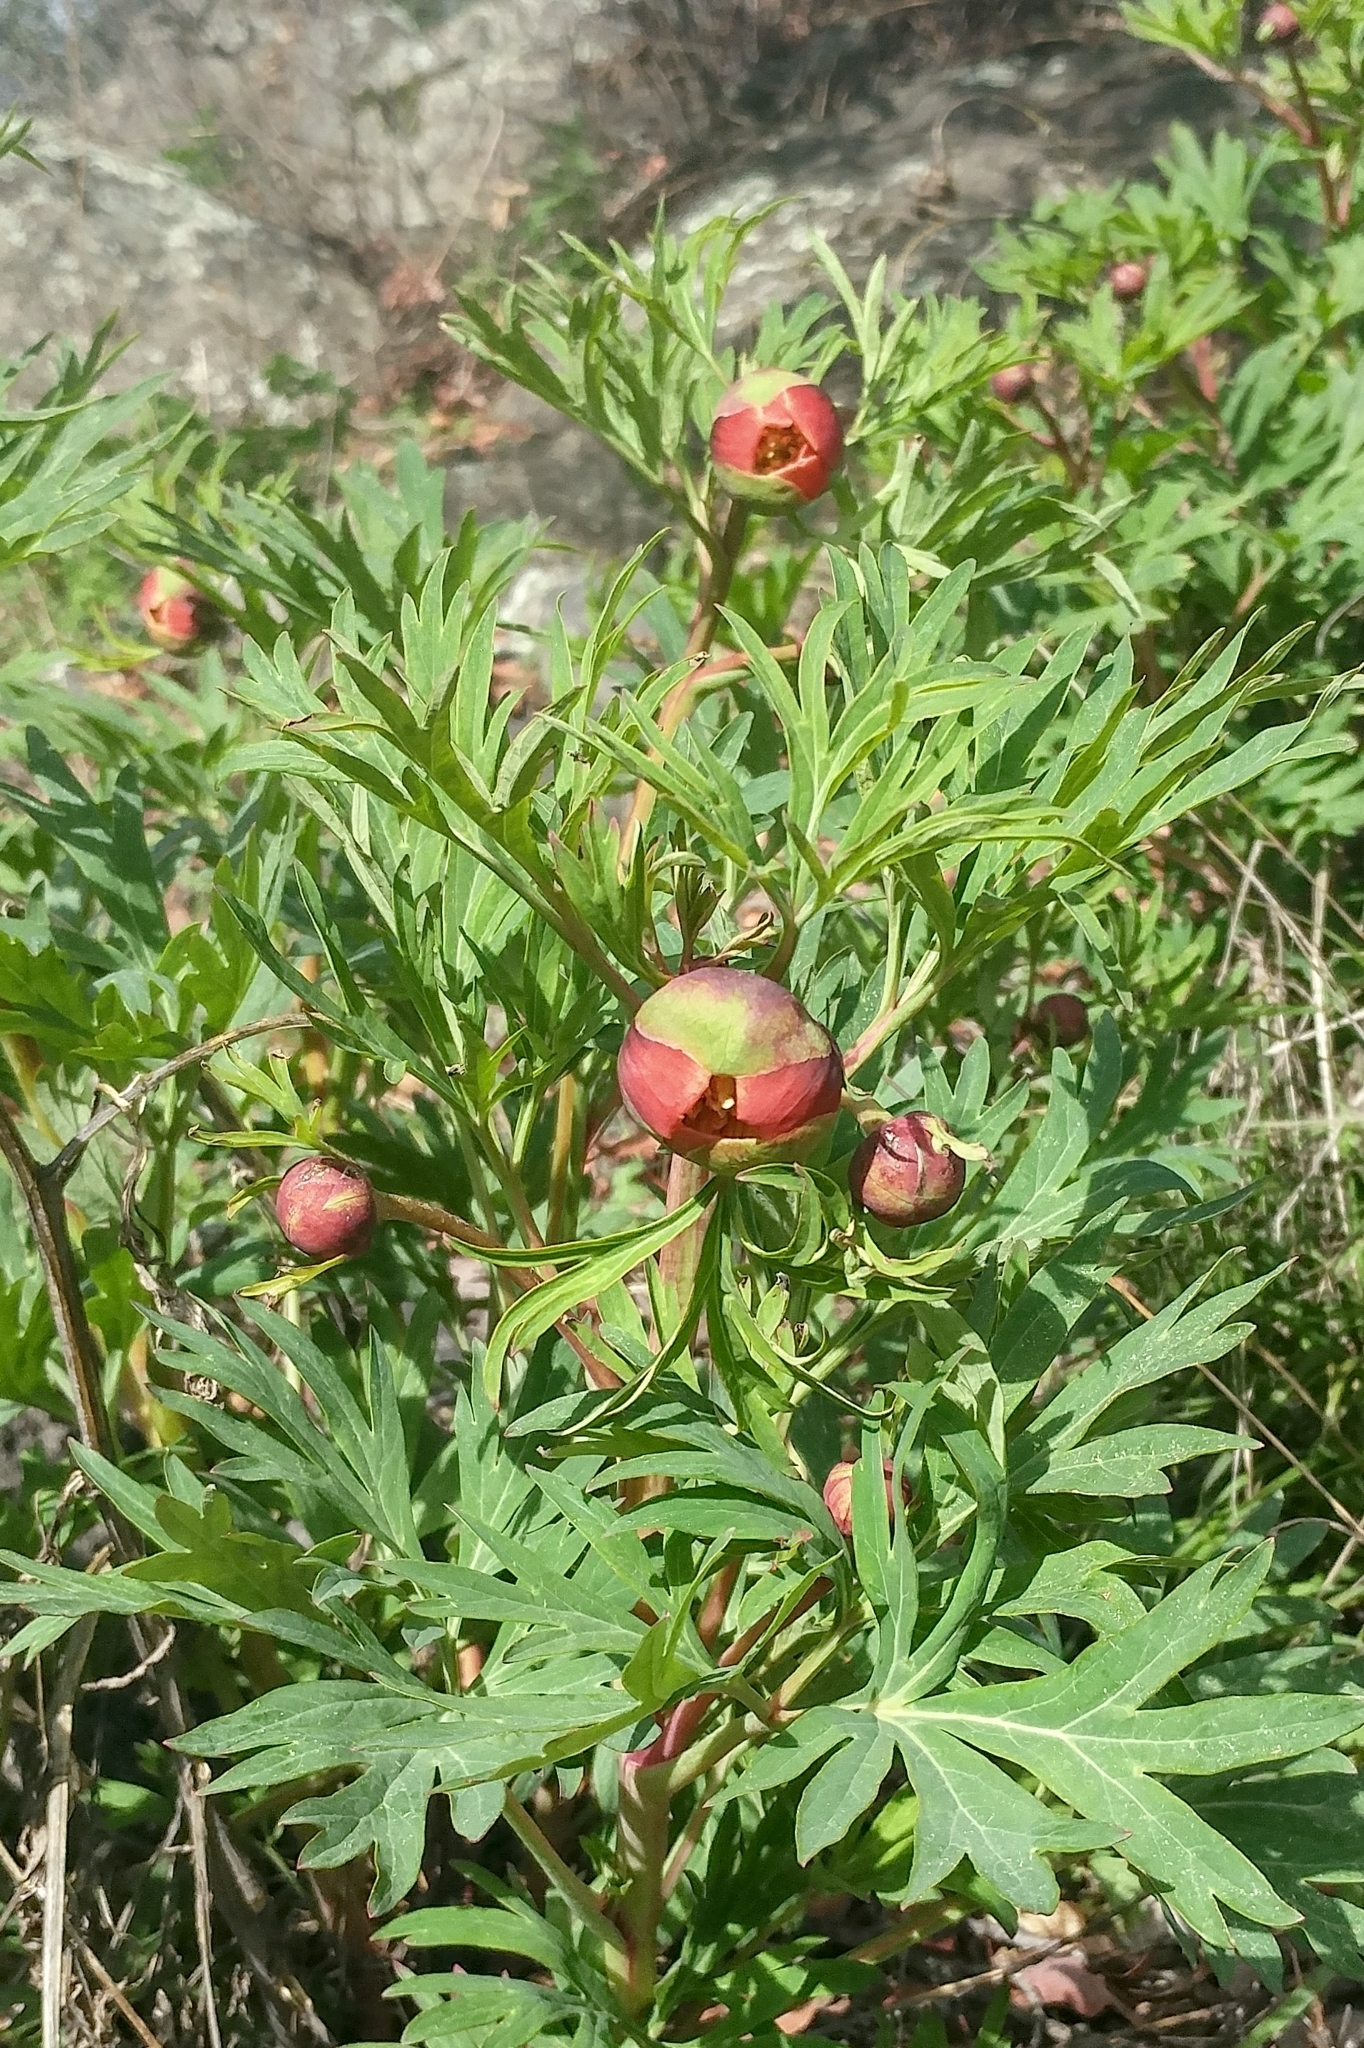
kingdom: Plantae
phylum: Tracheophyta
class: Magnoliopsida
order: Saxifragales
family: Paeoniaceae
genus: Paeonia
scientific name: Paeonia californica
